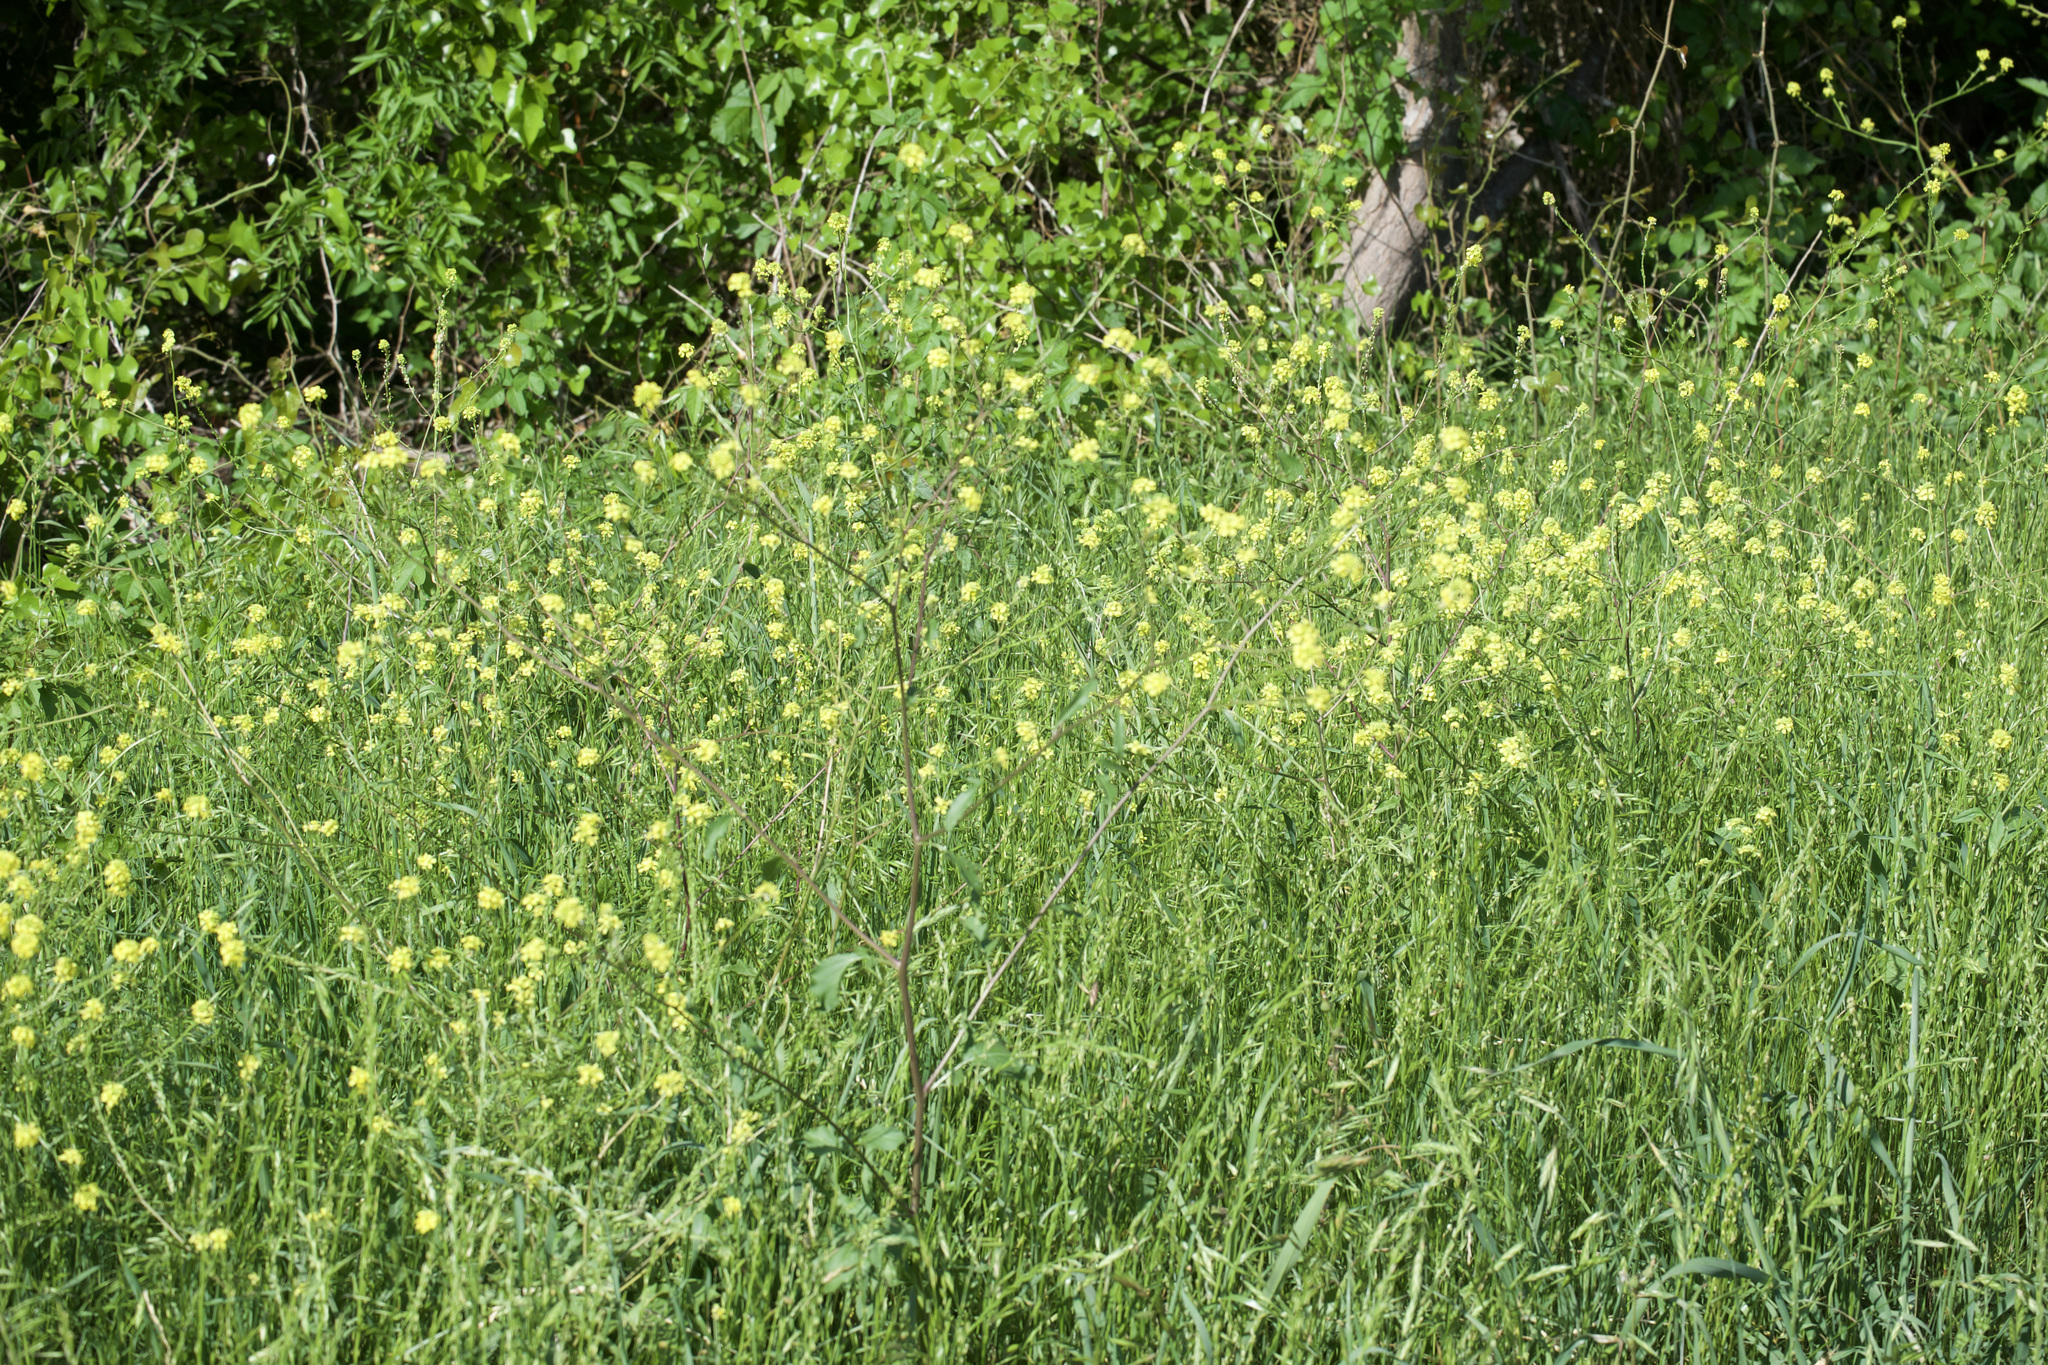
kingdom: Plantae
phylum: Tracheophyta
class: Magnoliopsida
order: Brassicales
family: Brassicaceae
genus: Rapistrum
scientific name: Rapistrum rugosum
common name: Annual bastardcabbage
